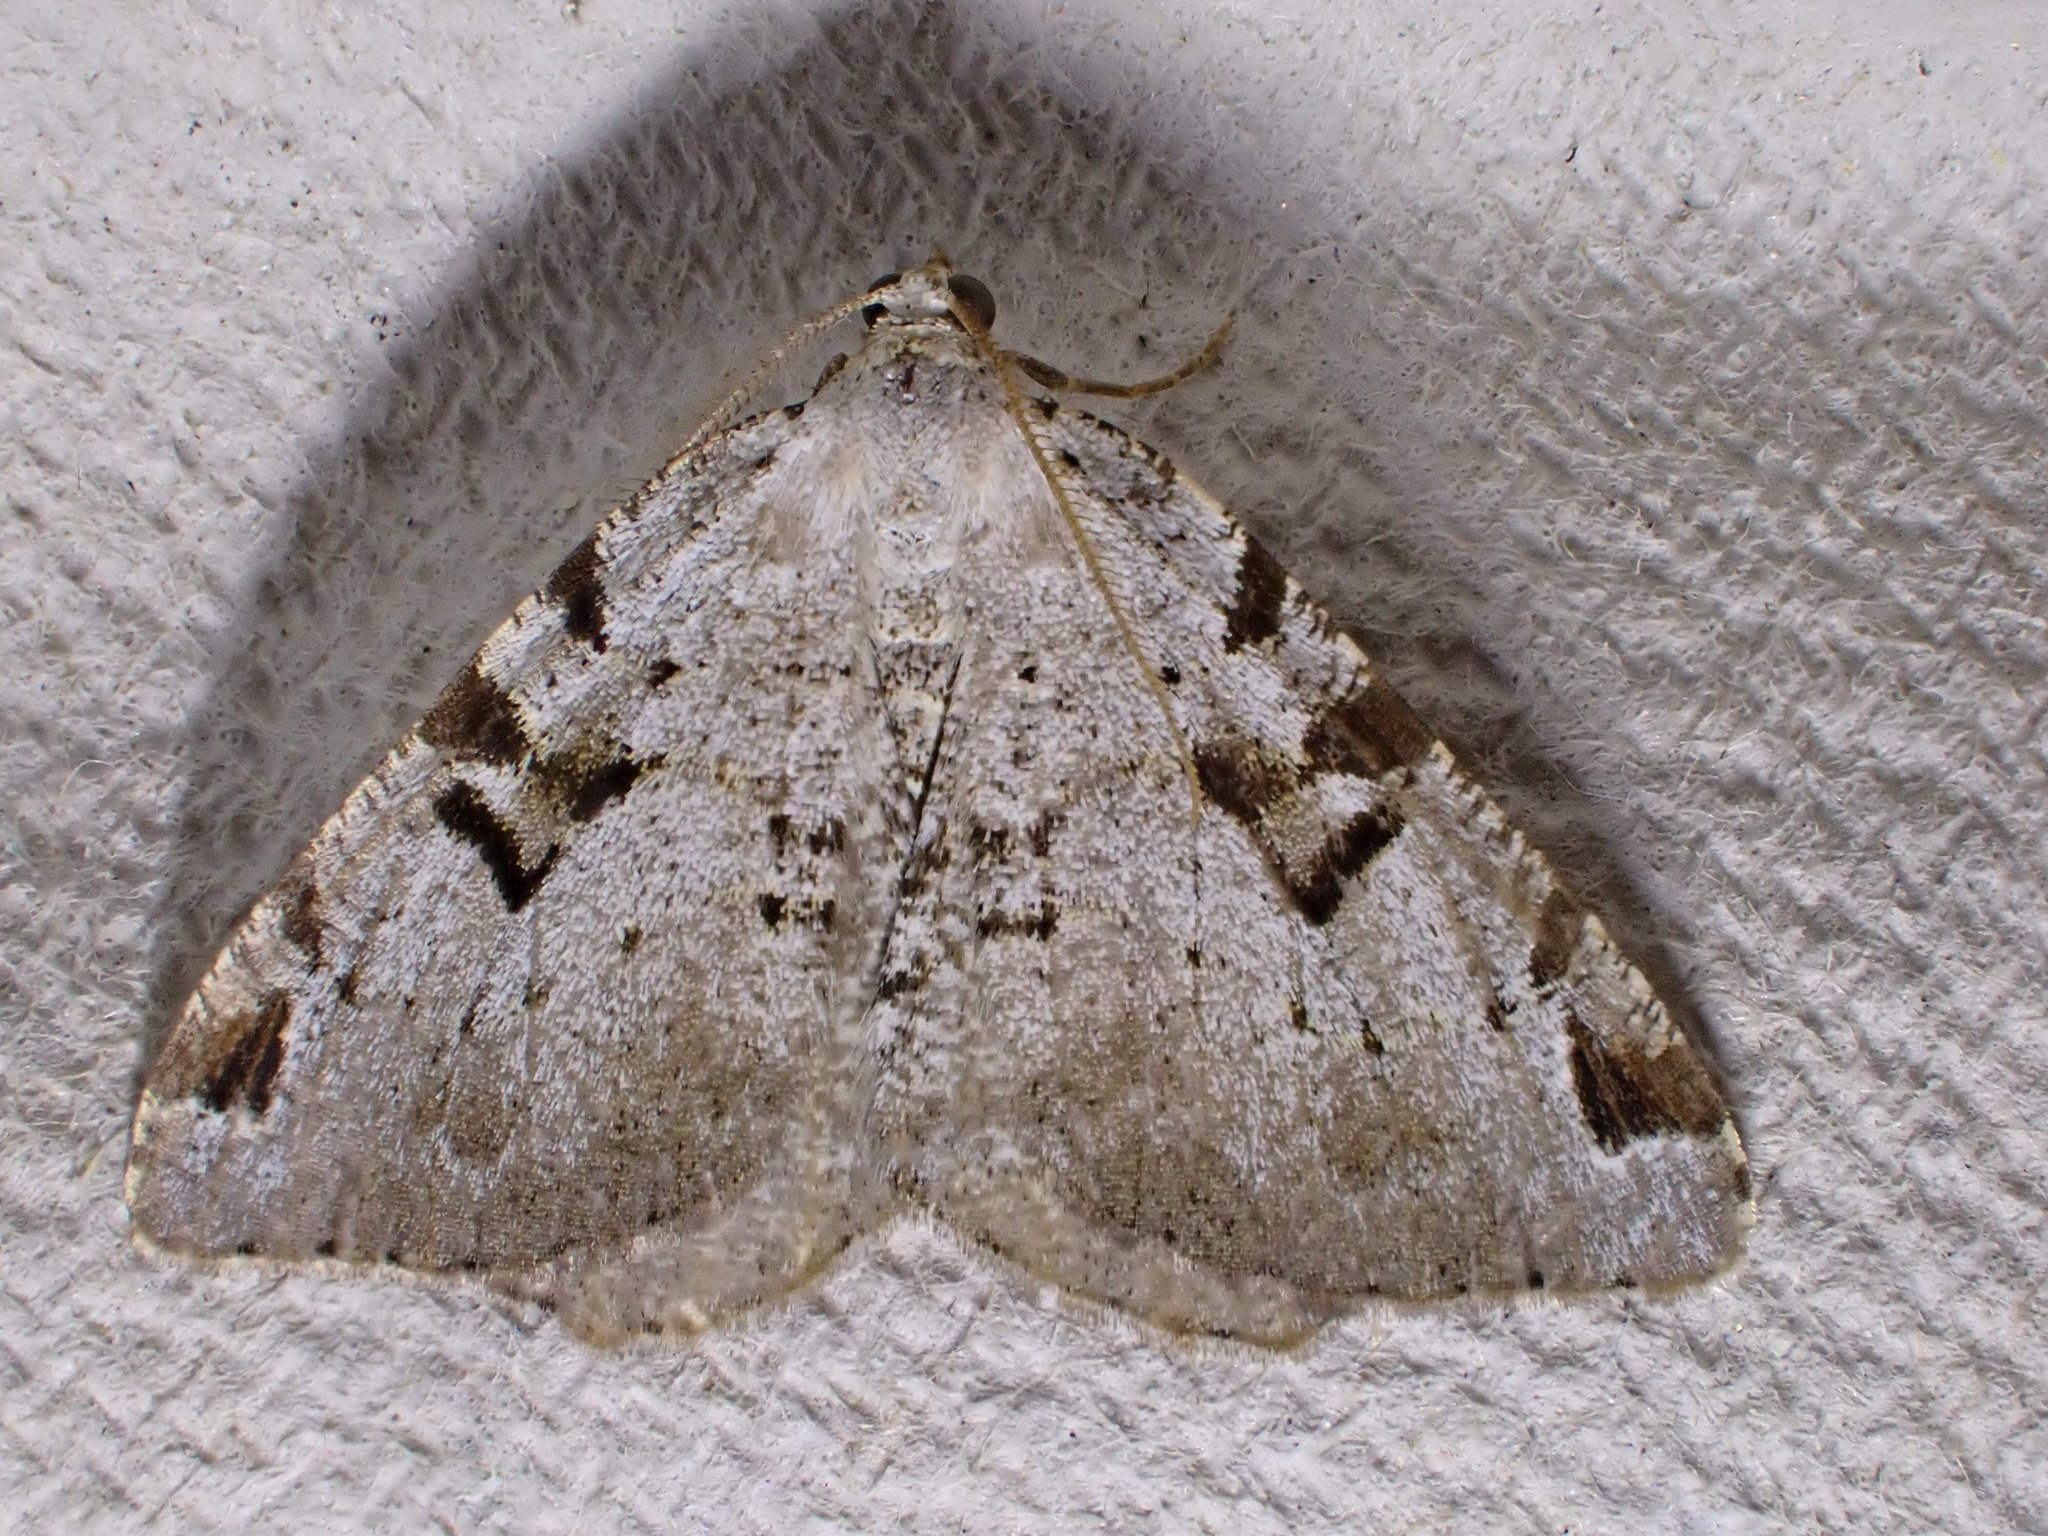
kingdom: Animalia
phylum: Arthropoda
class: Insecta
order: Lepidoptera
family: Geometridae
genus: Macaria
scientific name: Macaria wauaria
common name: V-moth
